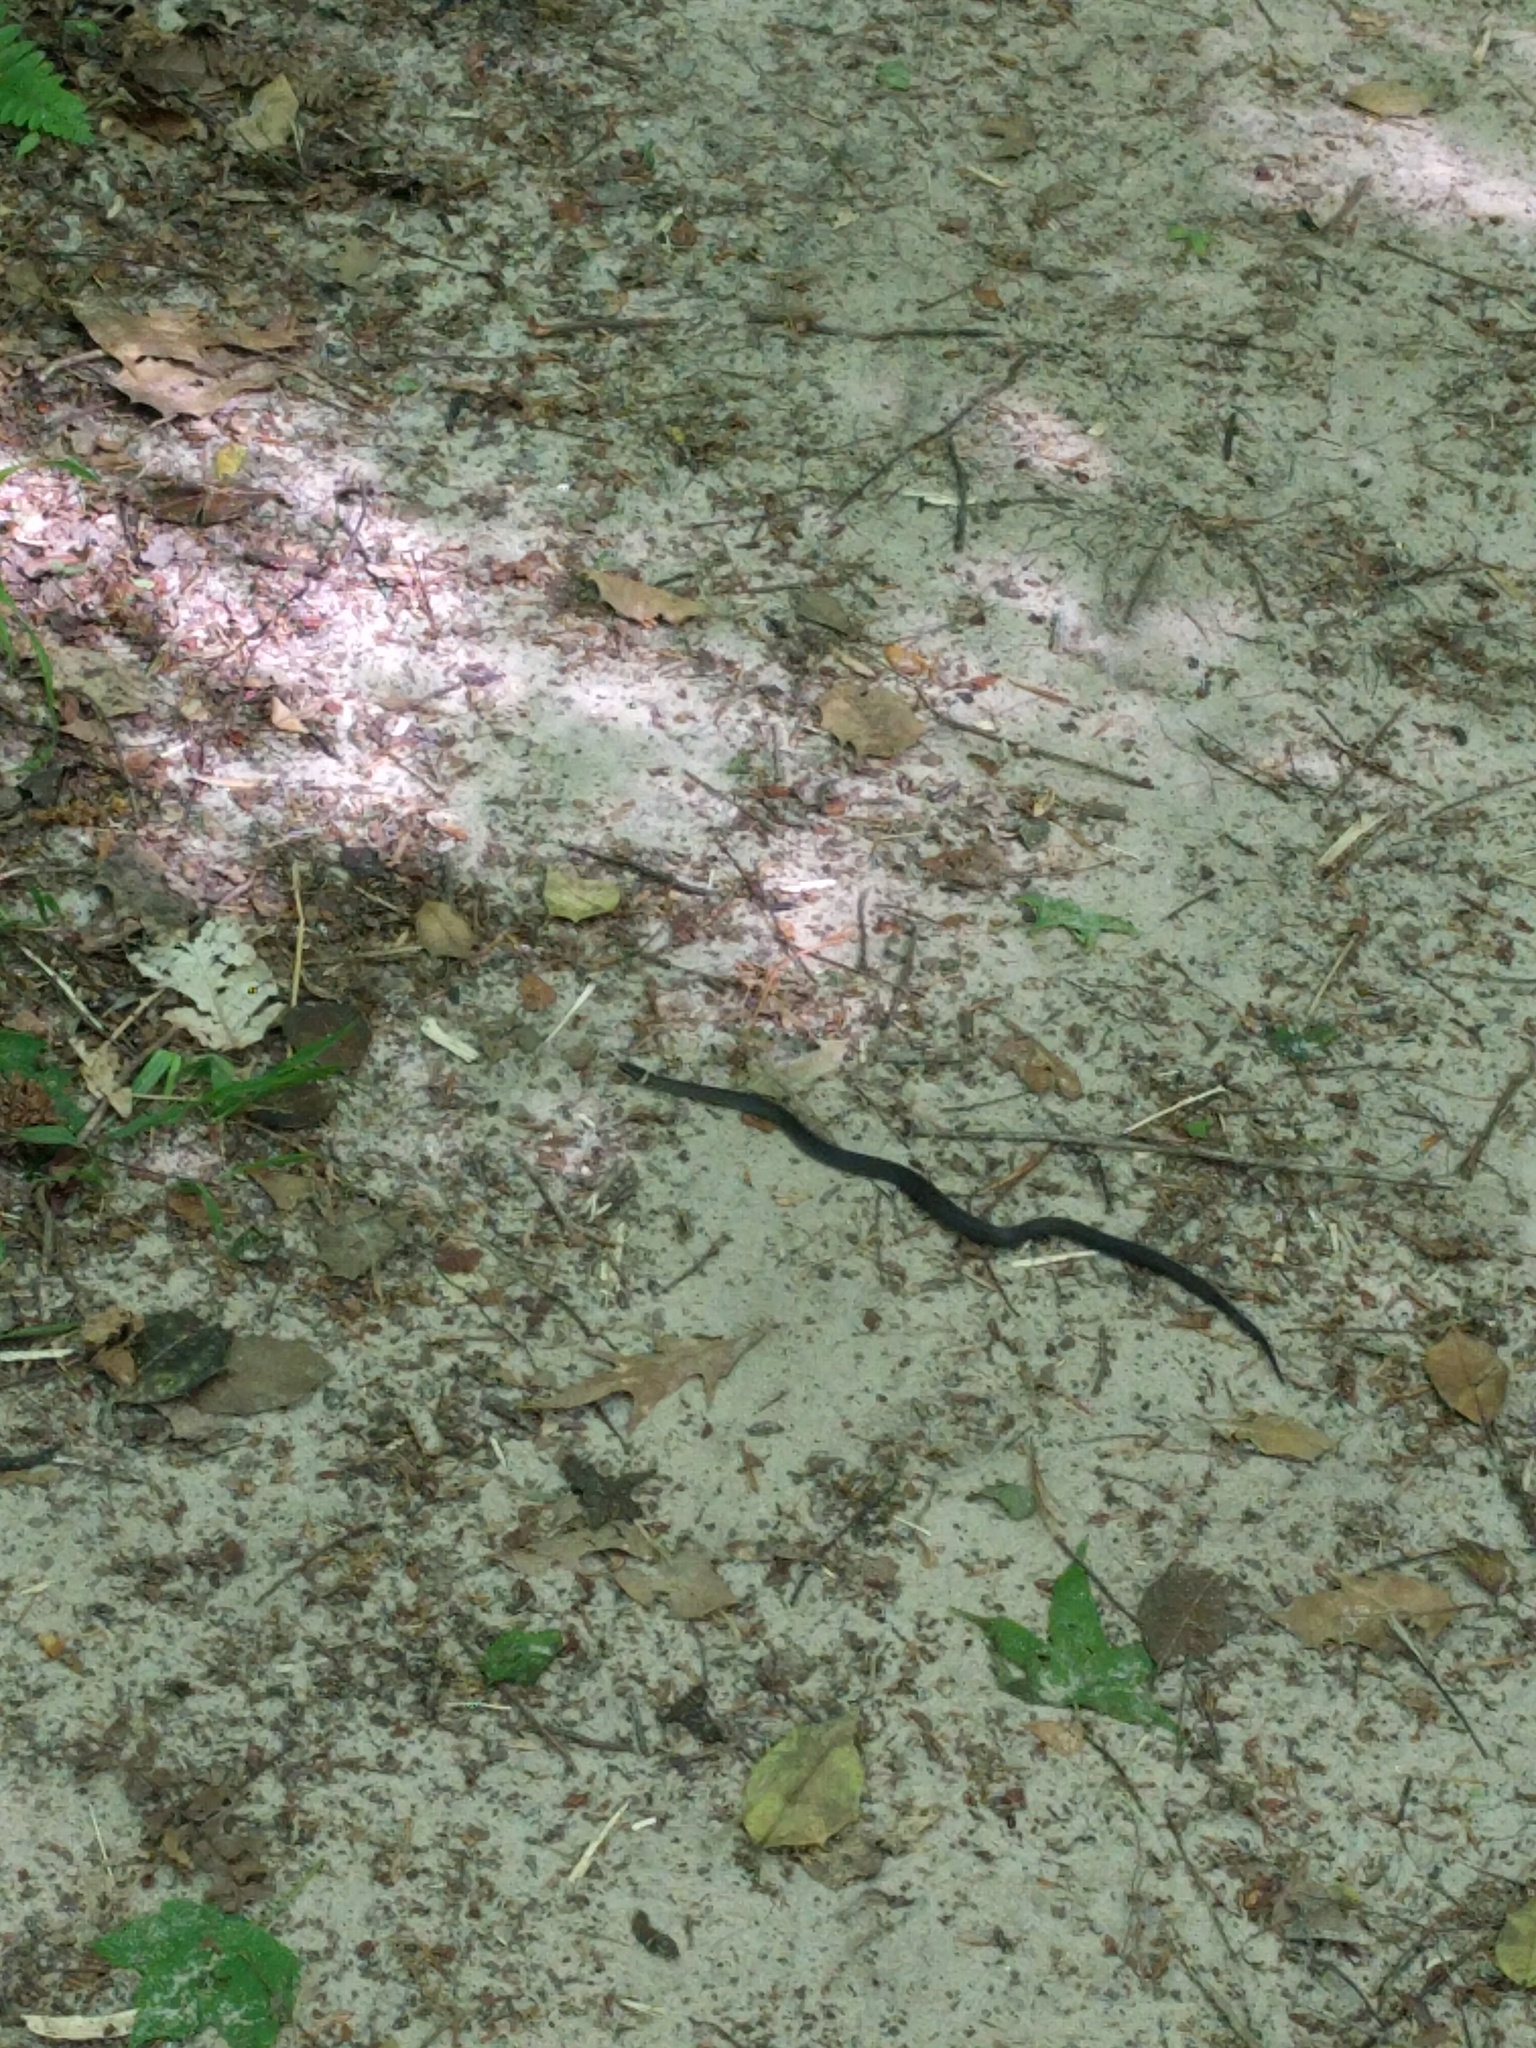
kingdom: Animalia
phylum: Chordata
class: Squamata
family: Colubridae
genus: Diadophis
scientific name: Diadophis punctatus
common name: Ringneck snake
